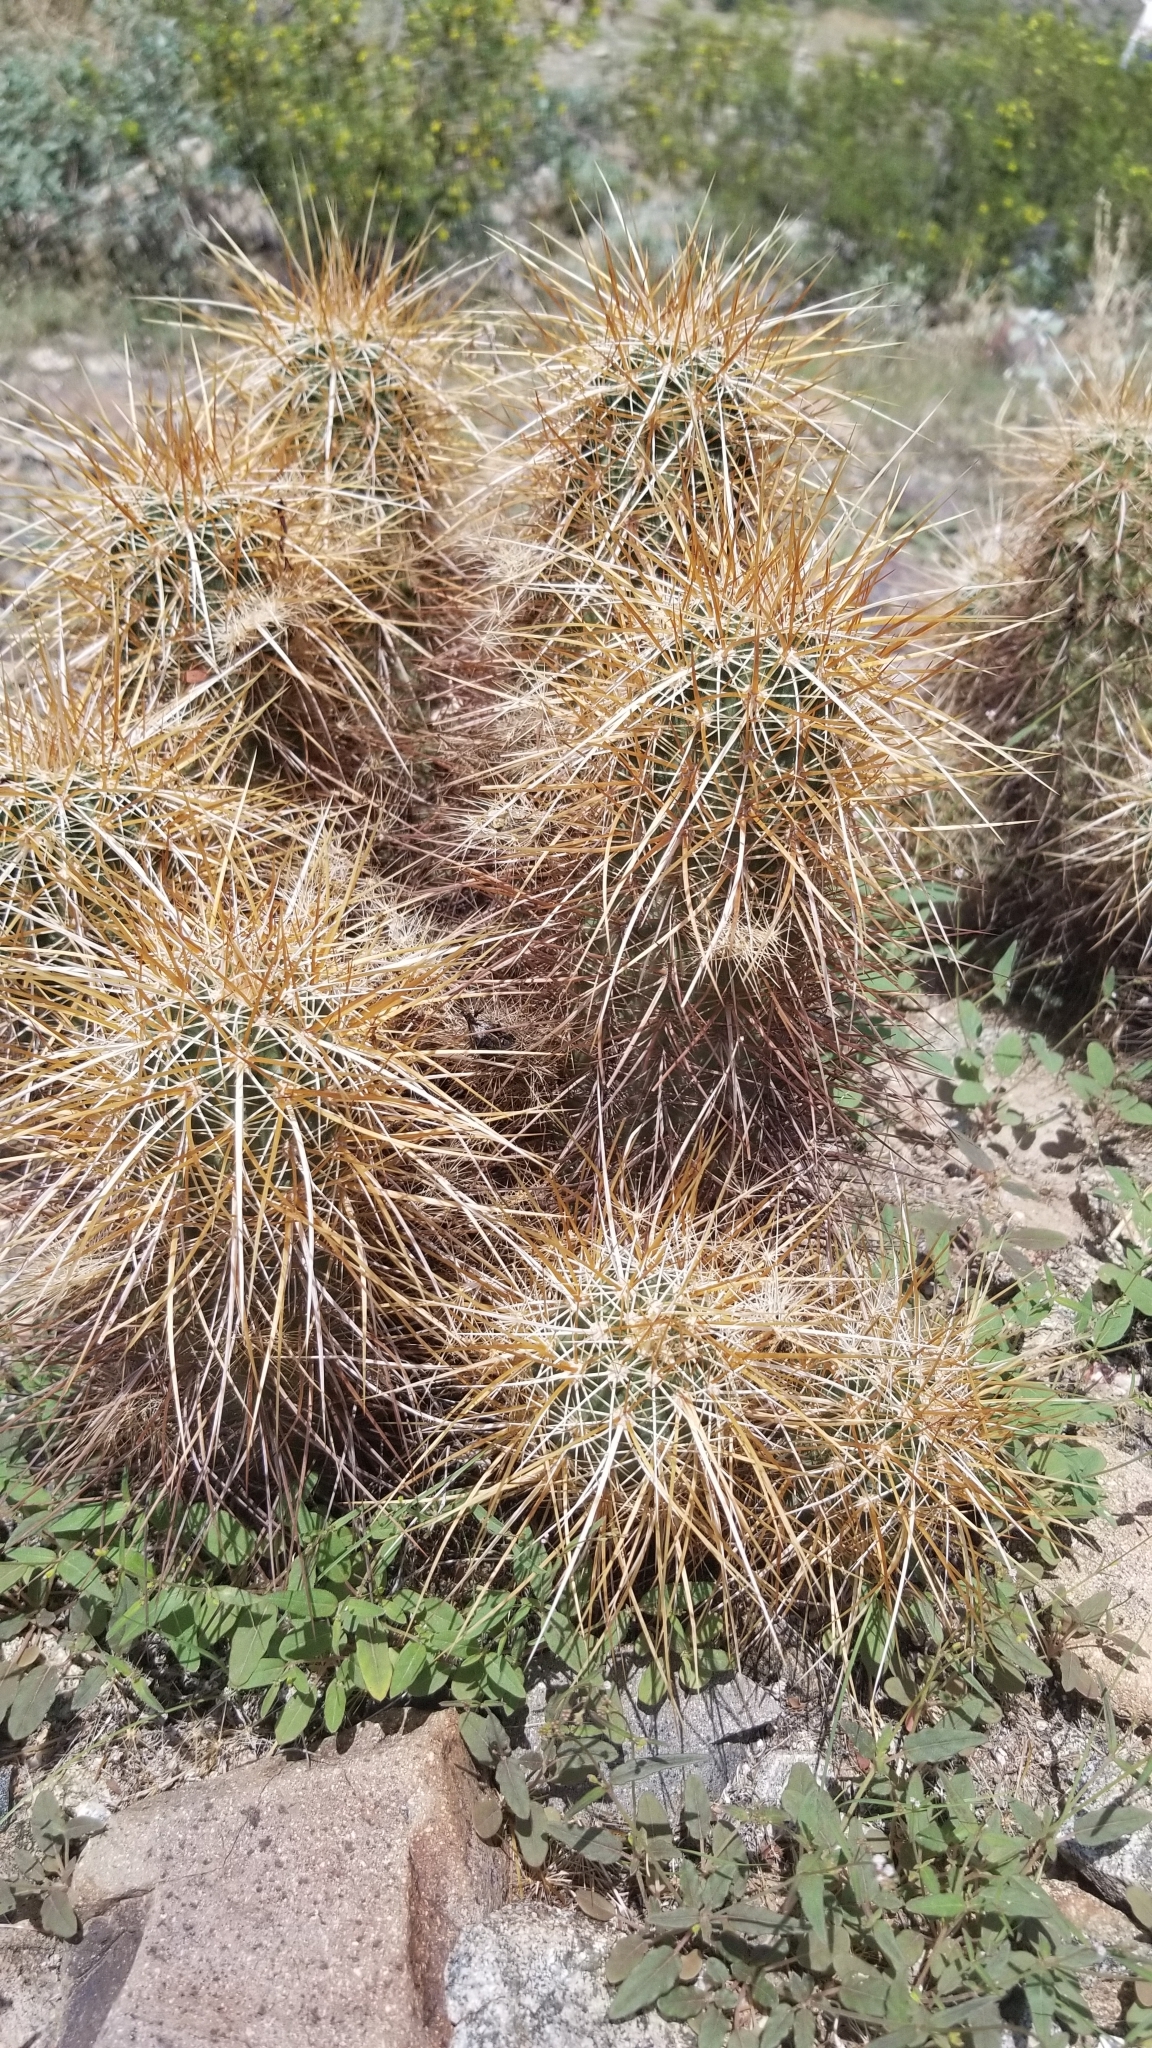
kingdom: Plantae
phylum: Tracheophyta
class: Magnoliopsida
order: Caryophyllales
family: Cactaceae
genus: Echinocereus
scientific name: Echinocereus engelmannii
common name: Engelmann's hedgehog cactus
